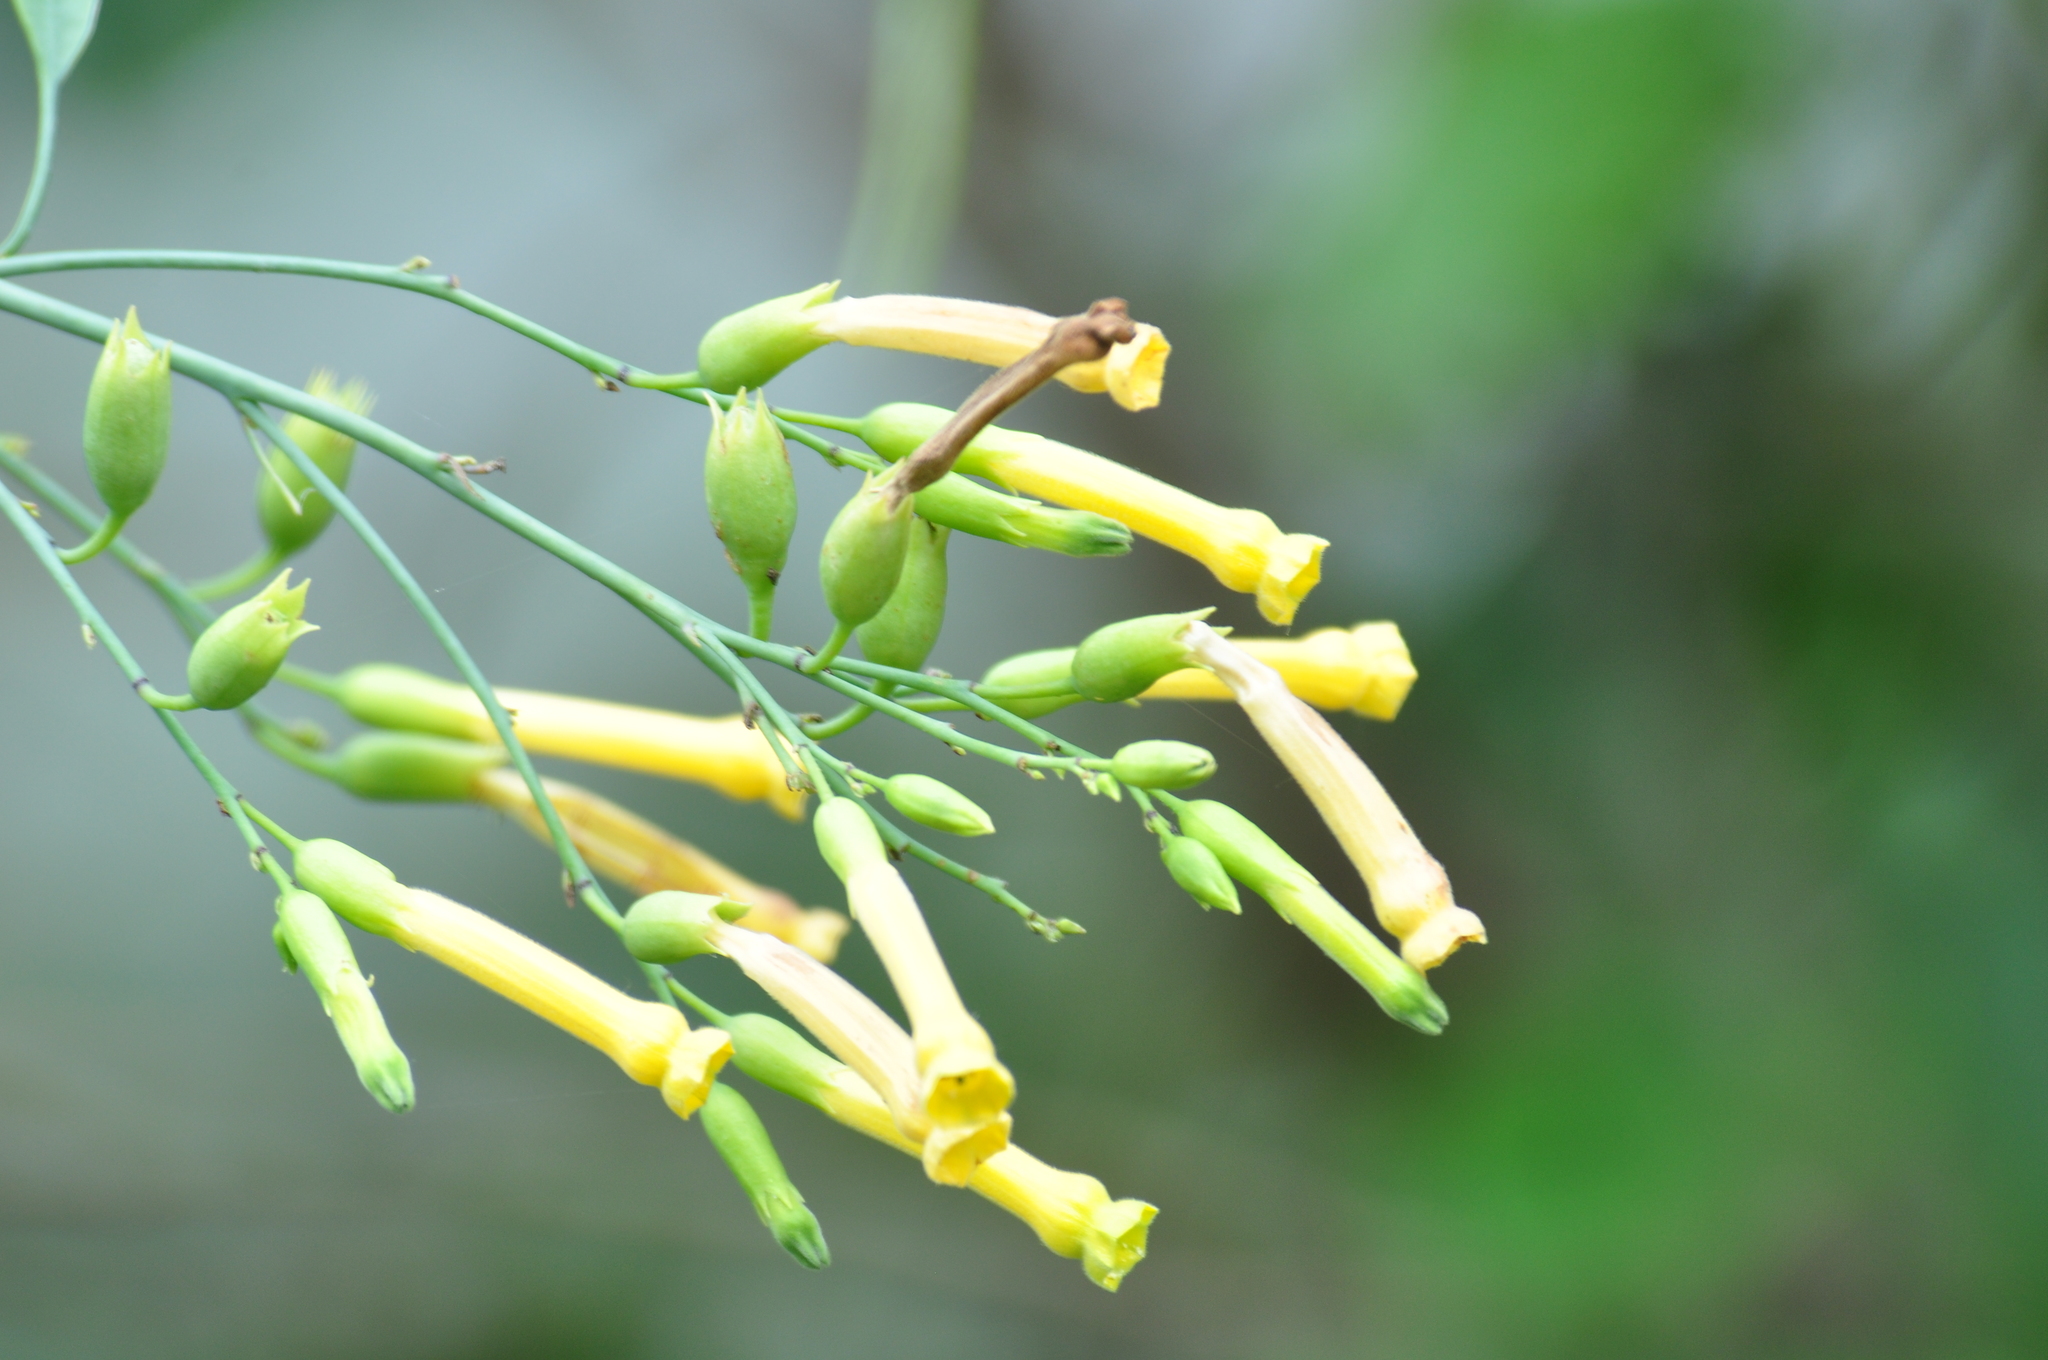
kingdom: Plantae
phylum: Tracheophyta
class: Magnoliopsida
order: Solanales
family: Solanaceae
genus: Nicotiana
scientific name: Nicotiana glauca
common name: Tree tobacco
